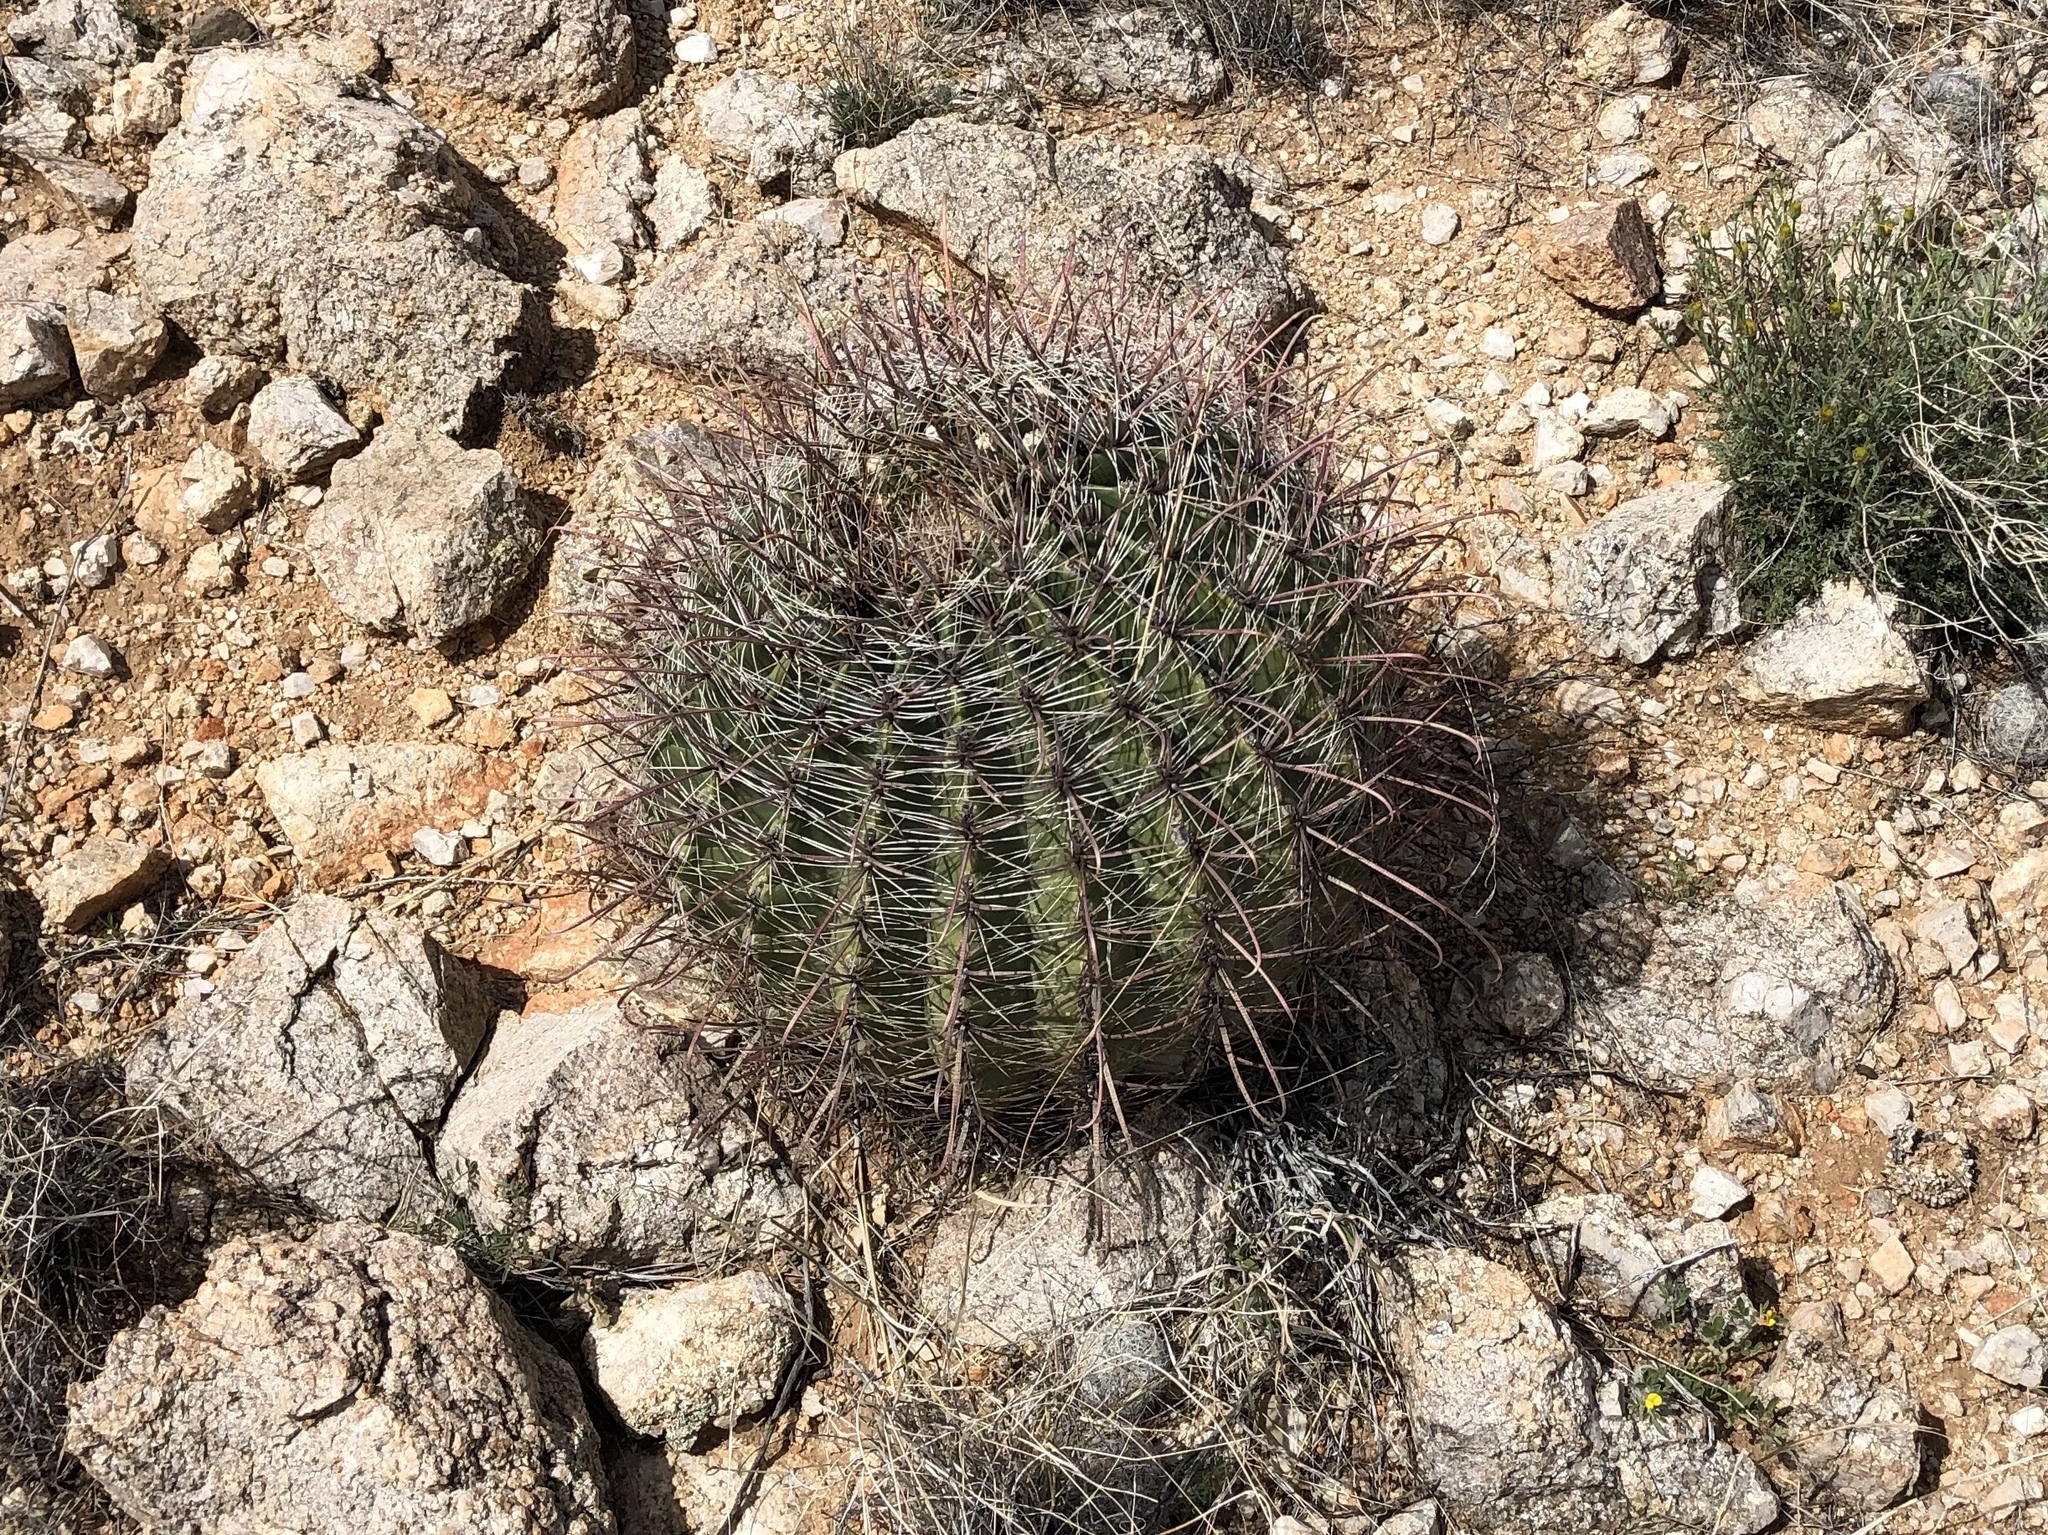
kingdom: Plantae
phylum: Tracheophyta
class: Magnoliopsida
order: Caryophyllales
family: Cactaceae
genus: Ferocactus
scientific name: Ferocactus wislizeni
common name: Candy barrel cactus
